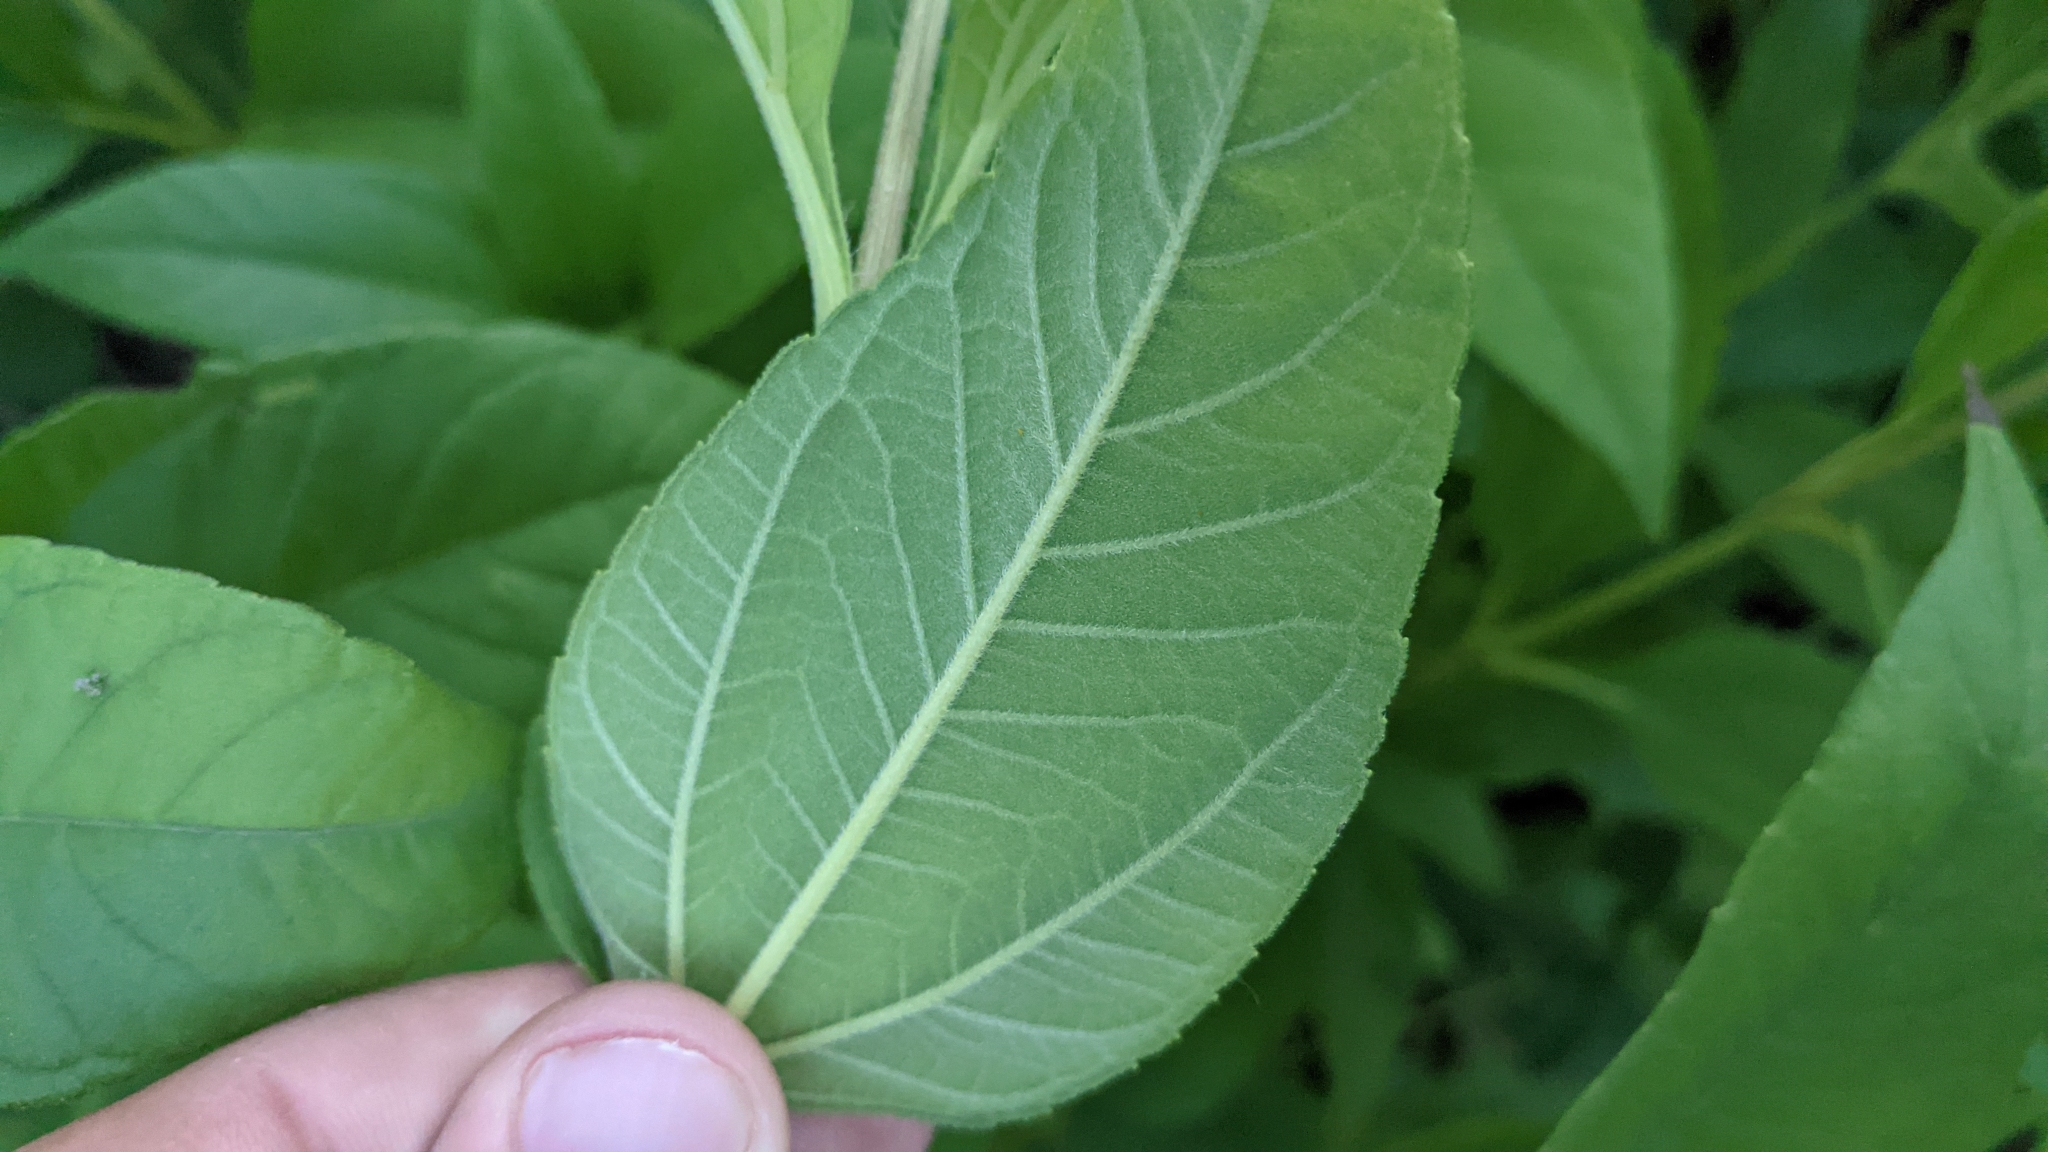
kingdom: Plantae
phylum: Tracheophyta
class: Magnoliopsida
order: Asterales
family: Asteraceae
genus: Helianthus
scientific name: Helianthus divaricatus
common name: Divergent sunflower
